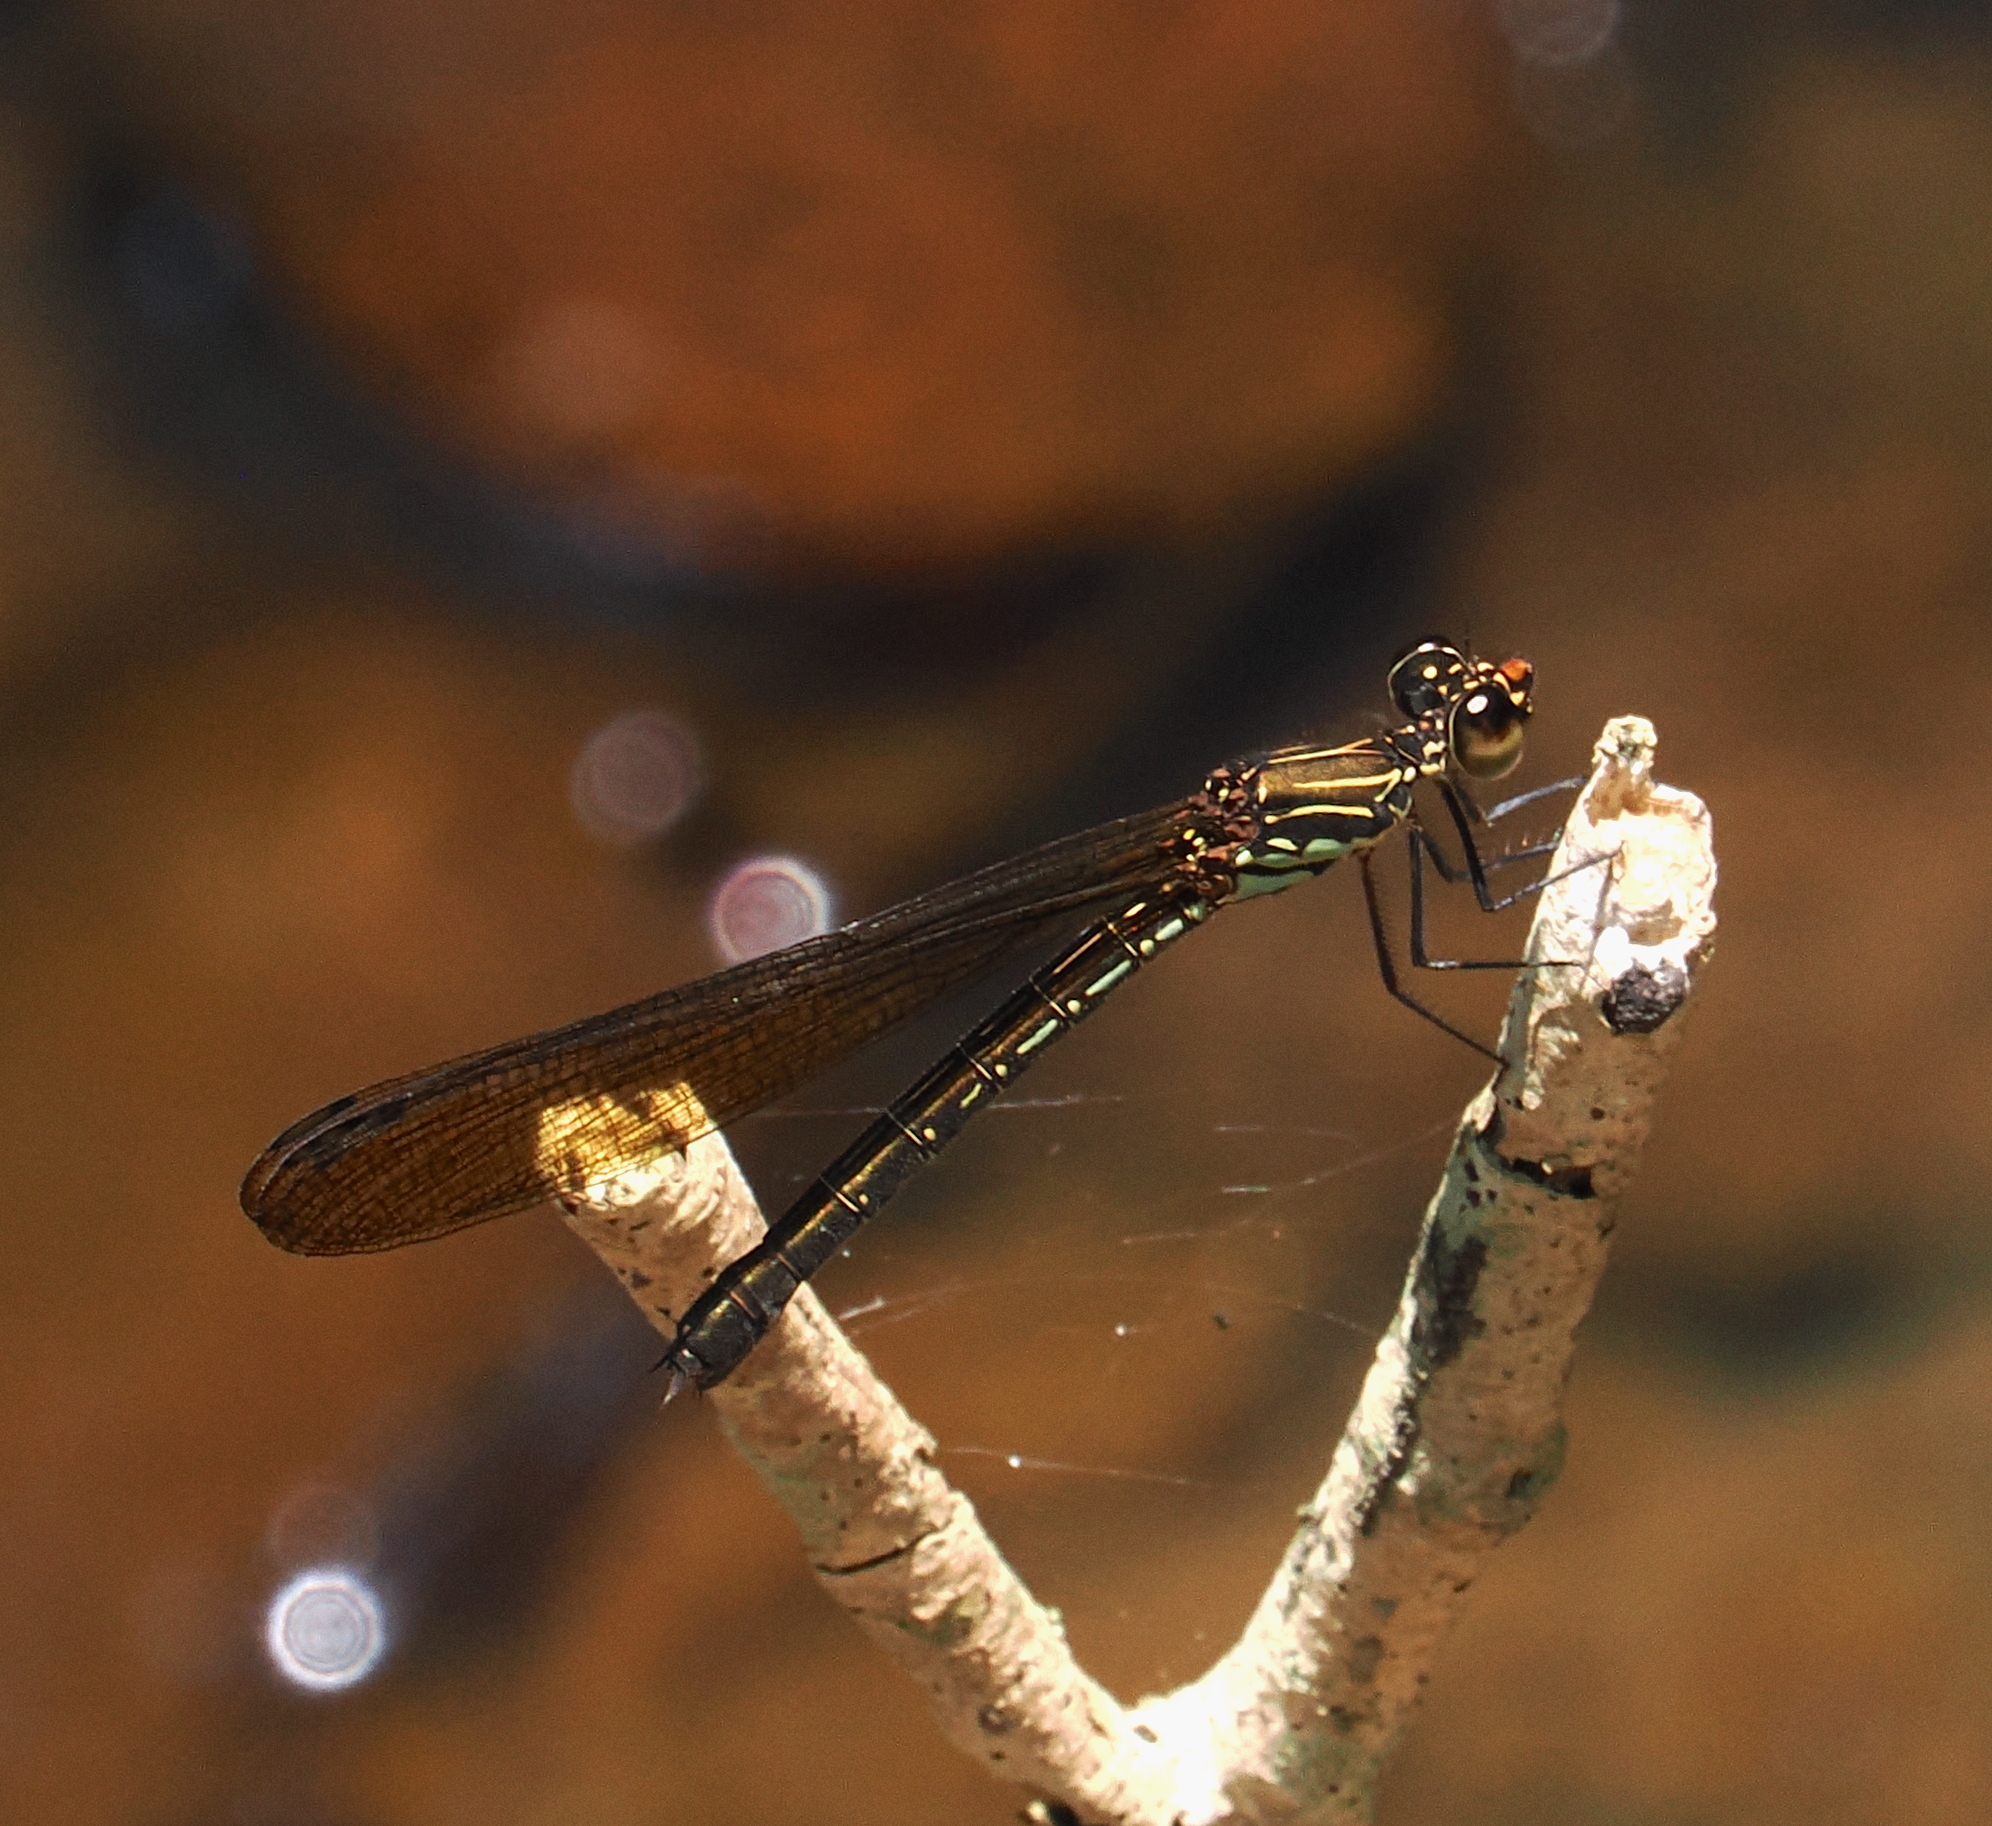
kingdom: Animalia
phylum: Arthropoda
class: Insecta
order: Odonata
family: Chlorocyphidae
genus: Heliocypha
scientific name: Heliocypha biforata
